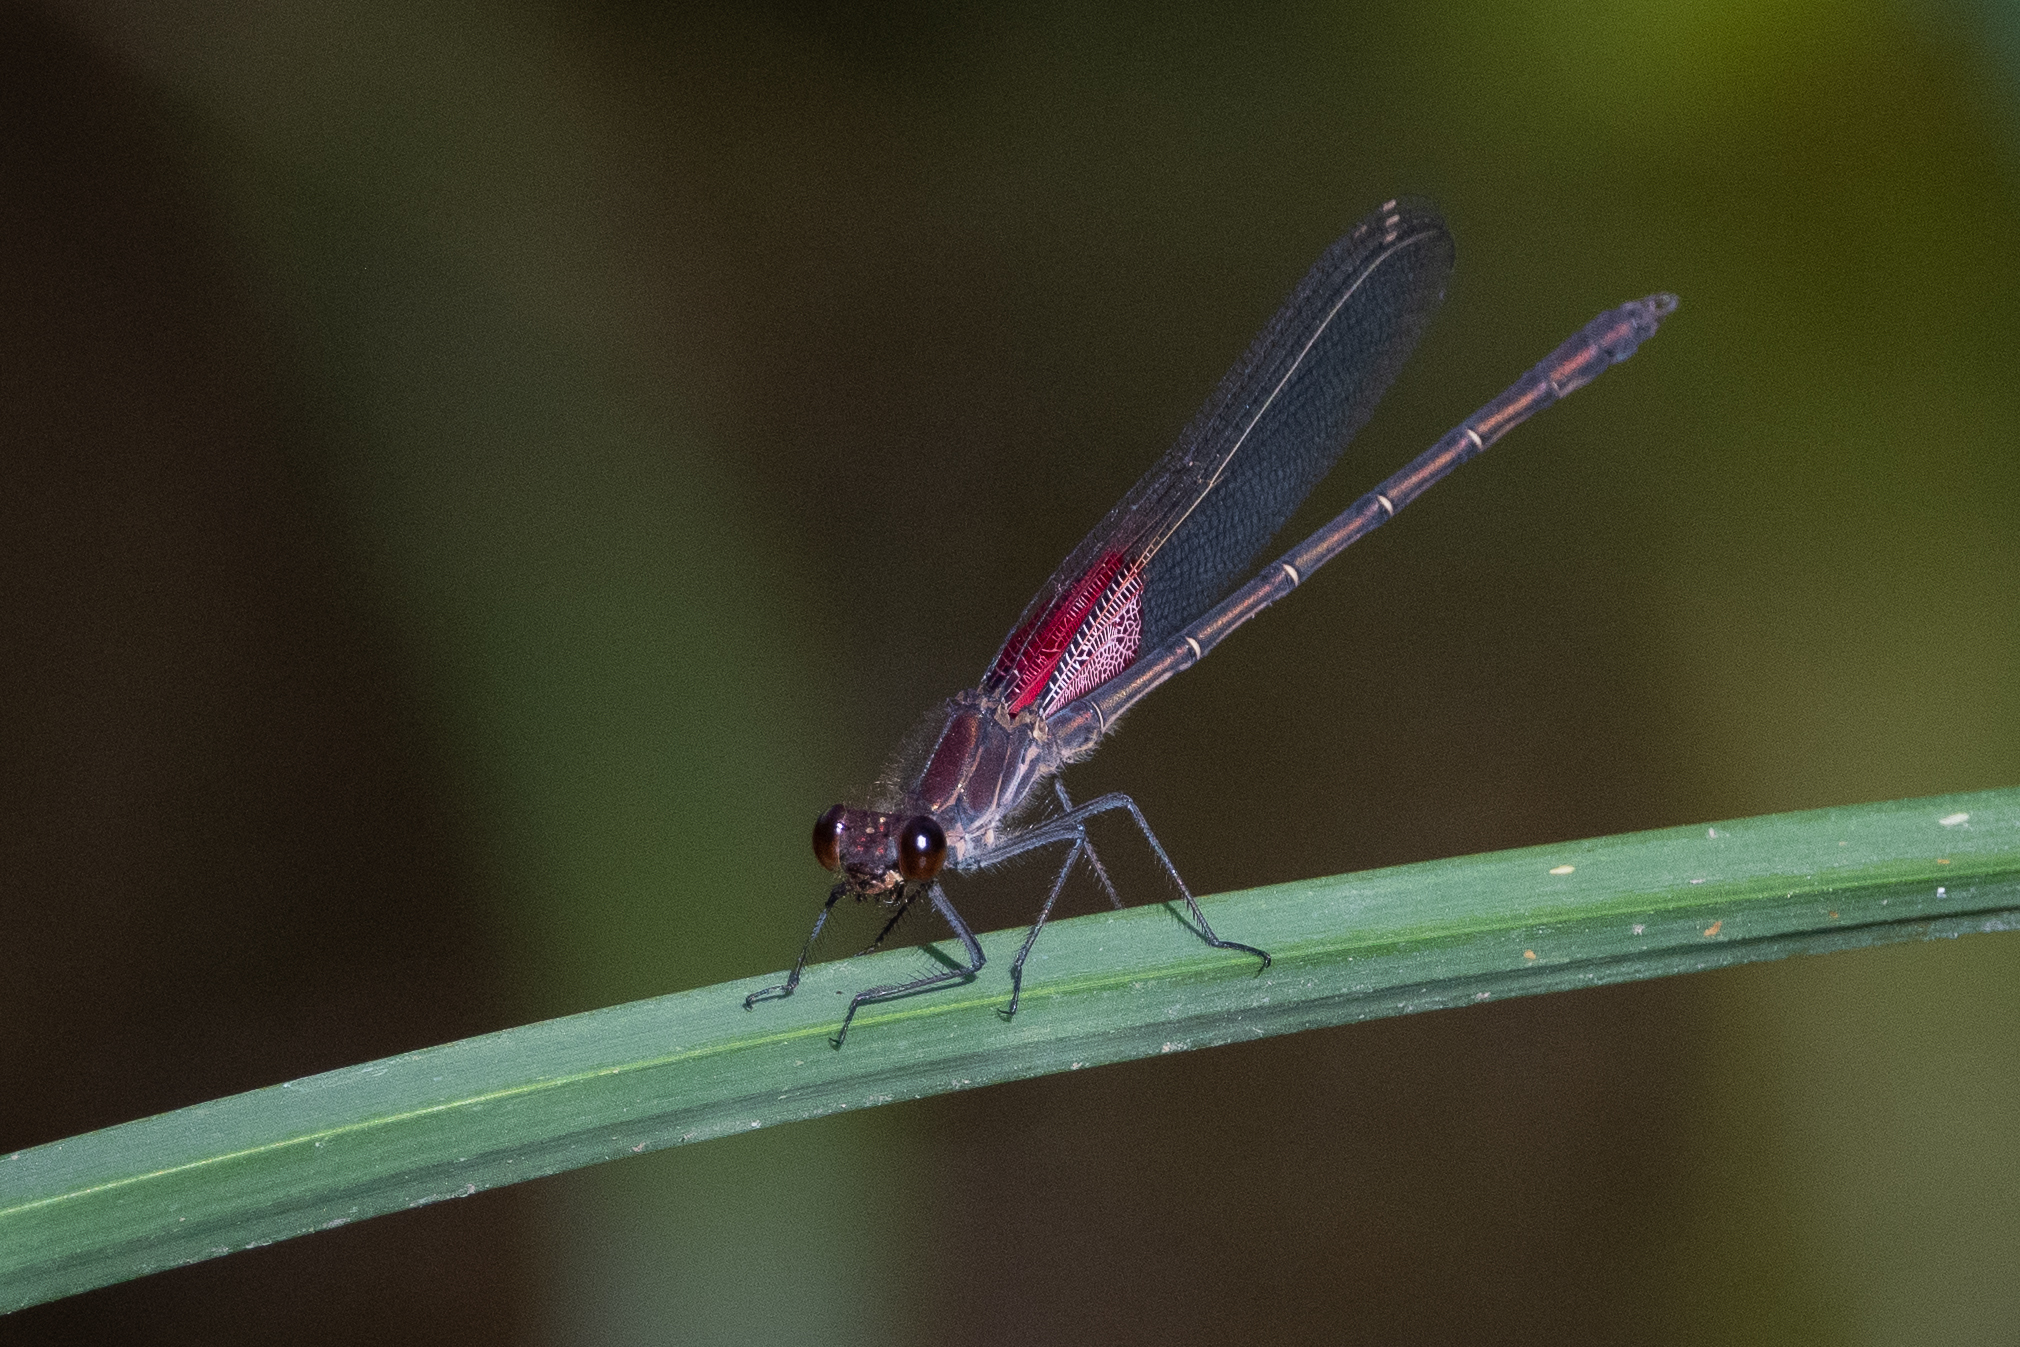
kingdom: Animalia
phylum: Arthropoda
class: Insecta
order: Odonata
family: Calopterygidae
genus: Hetaerina
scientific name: Hetaerina americana
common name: American rubyspot
